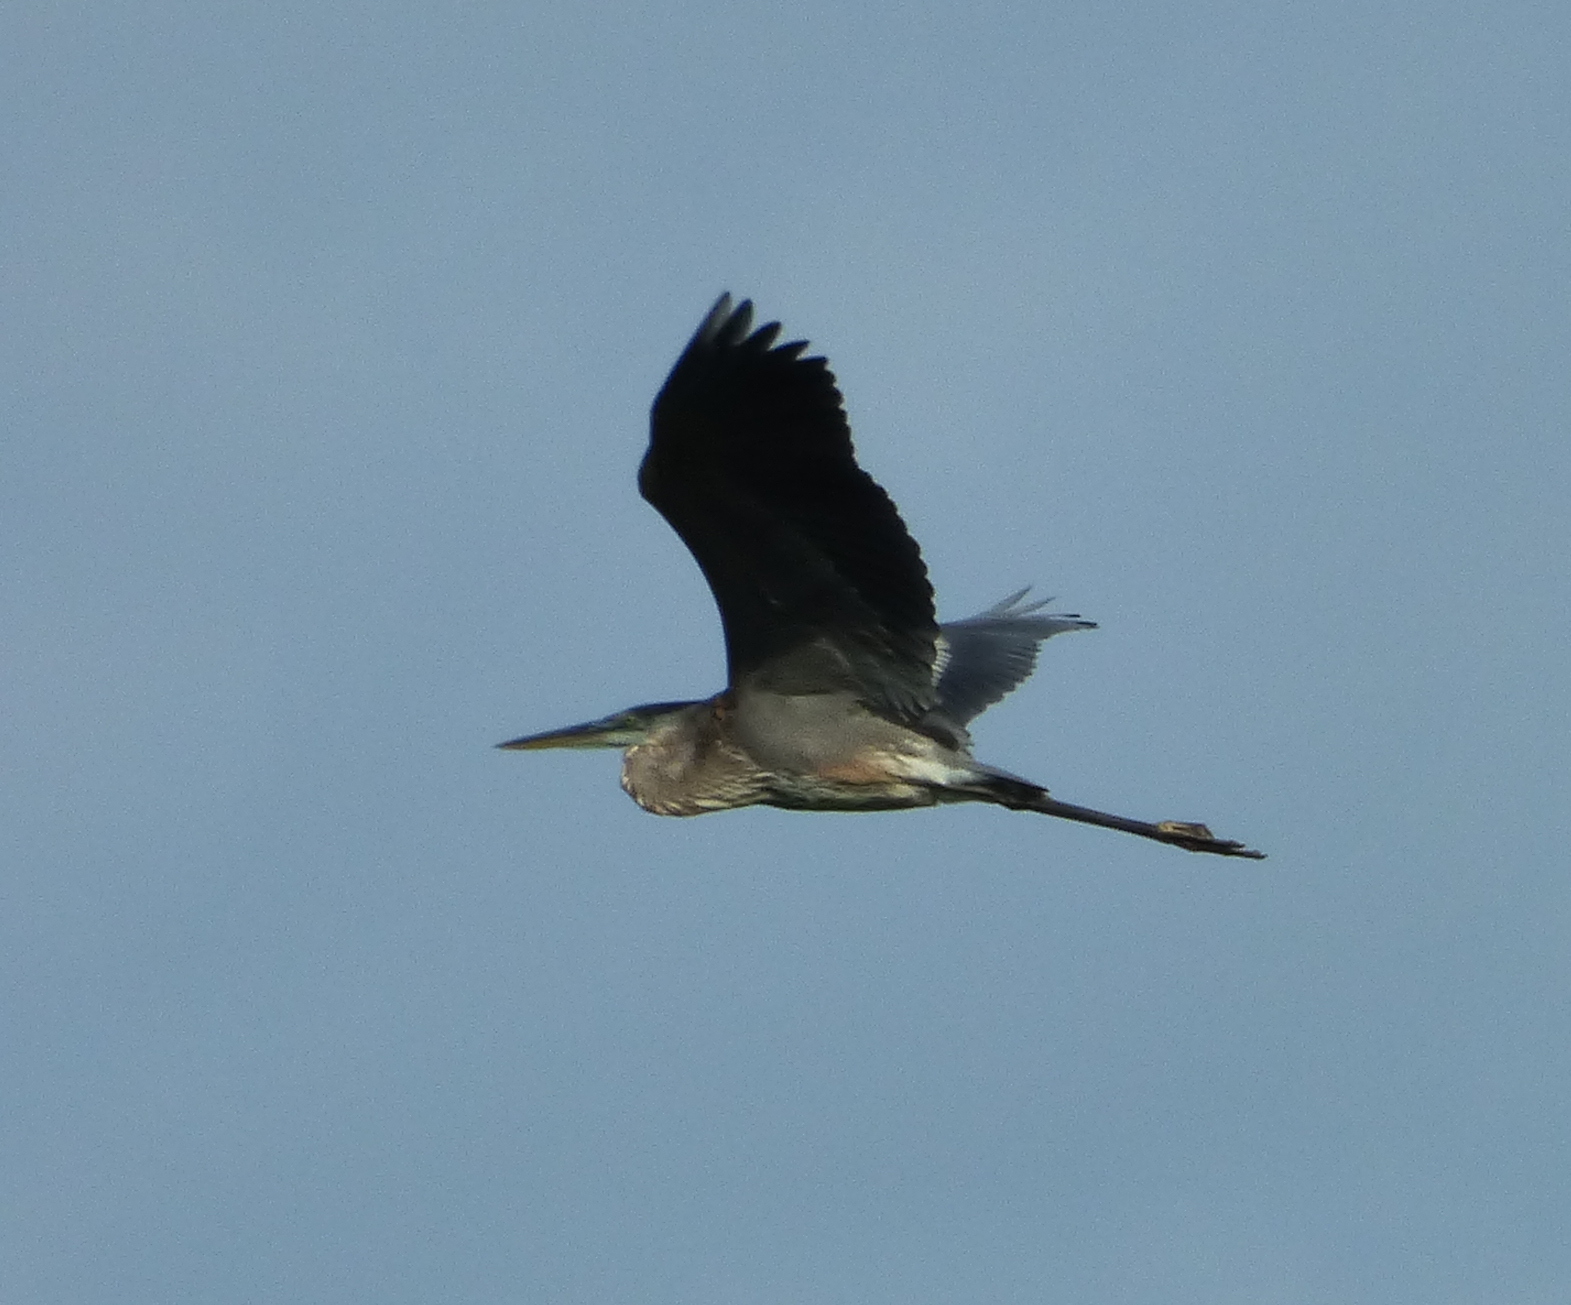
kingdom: Animalia
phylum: Chordata
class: Aves
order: Pelecaniformes
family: Ardeidae
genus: Ardea
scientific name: Ardea herodias
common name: Great blue heron
